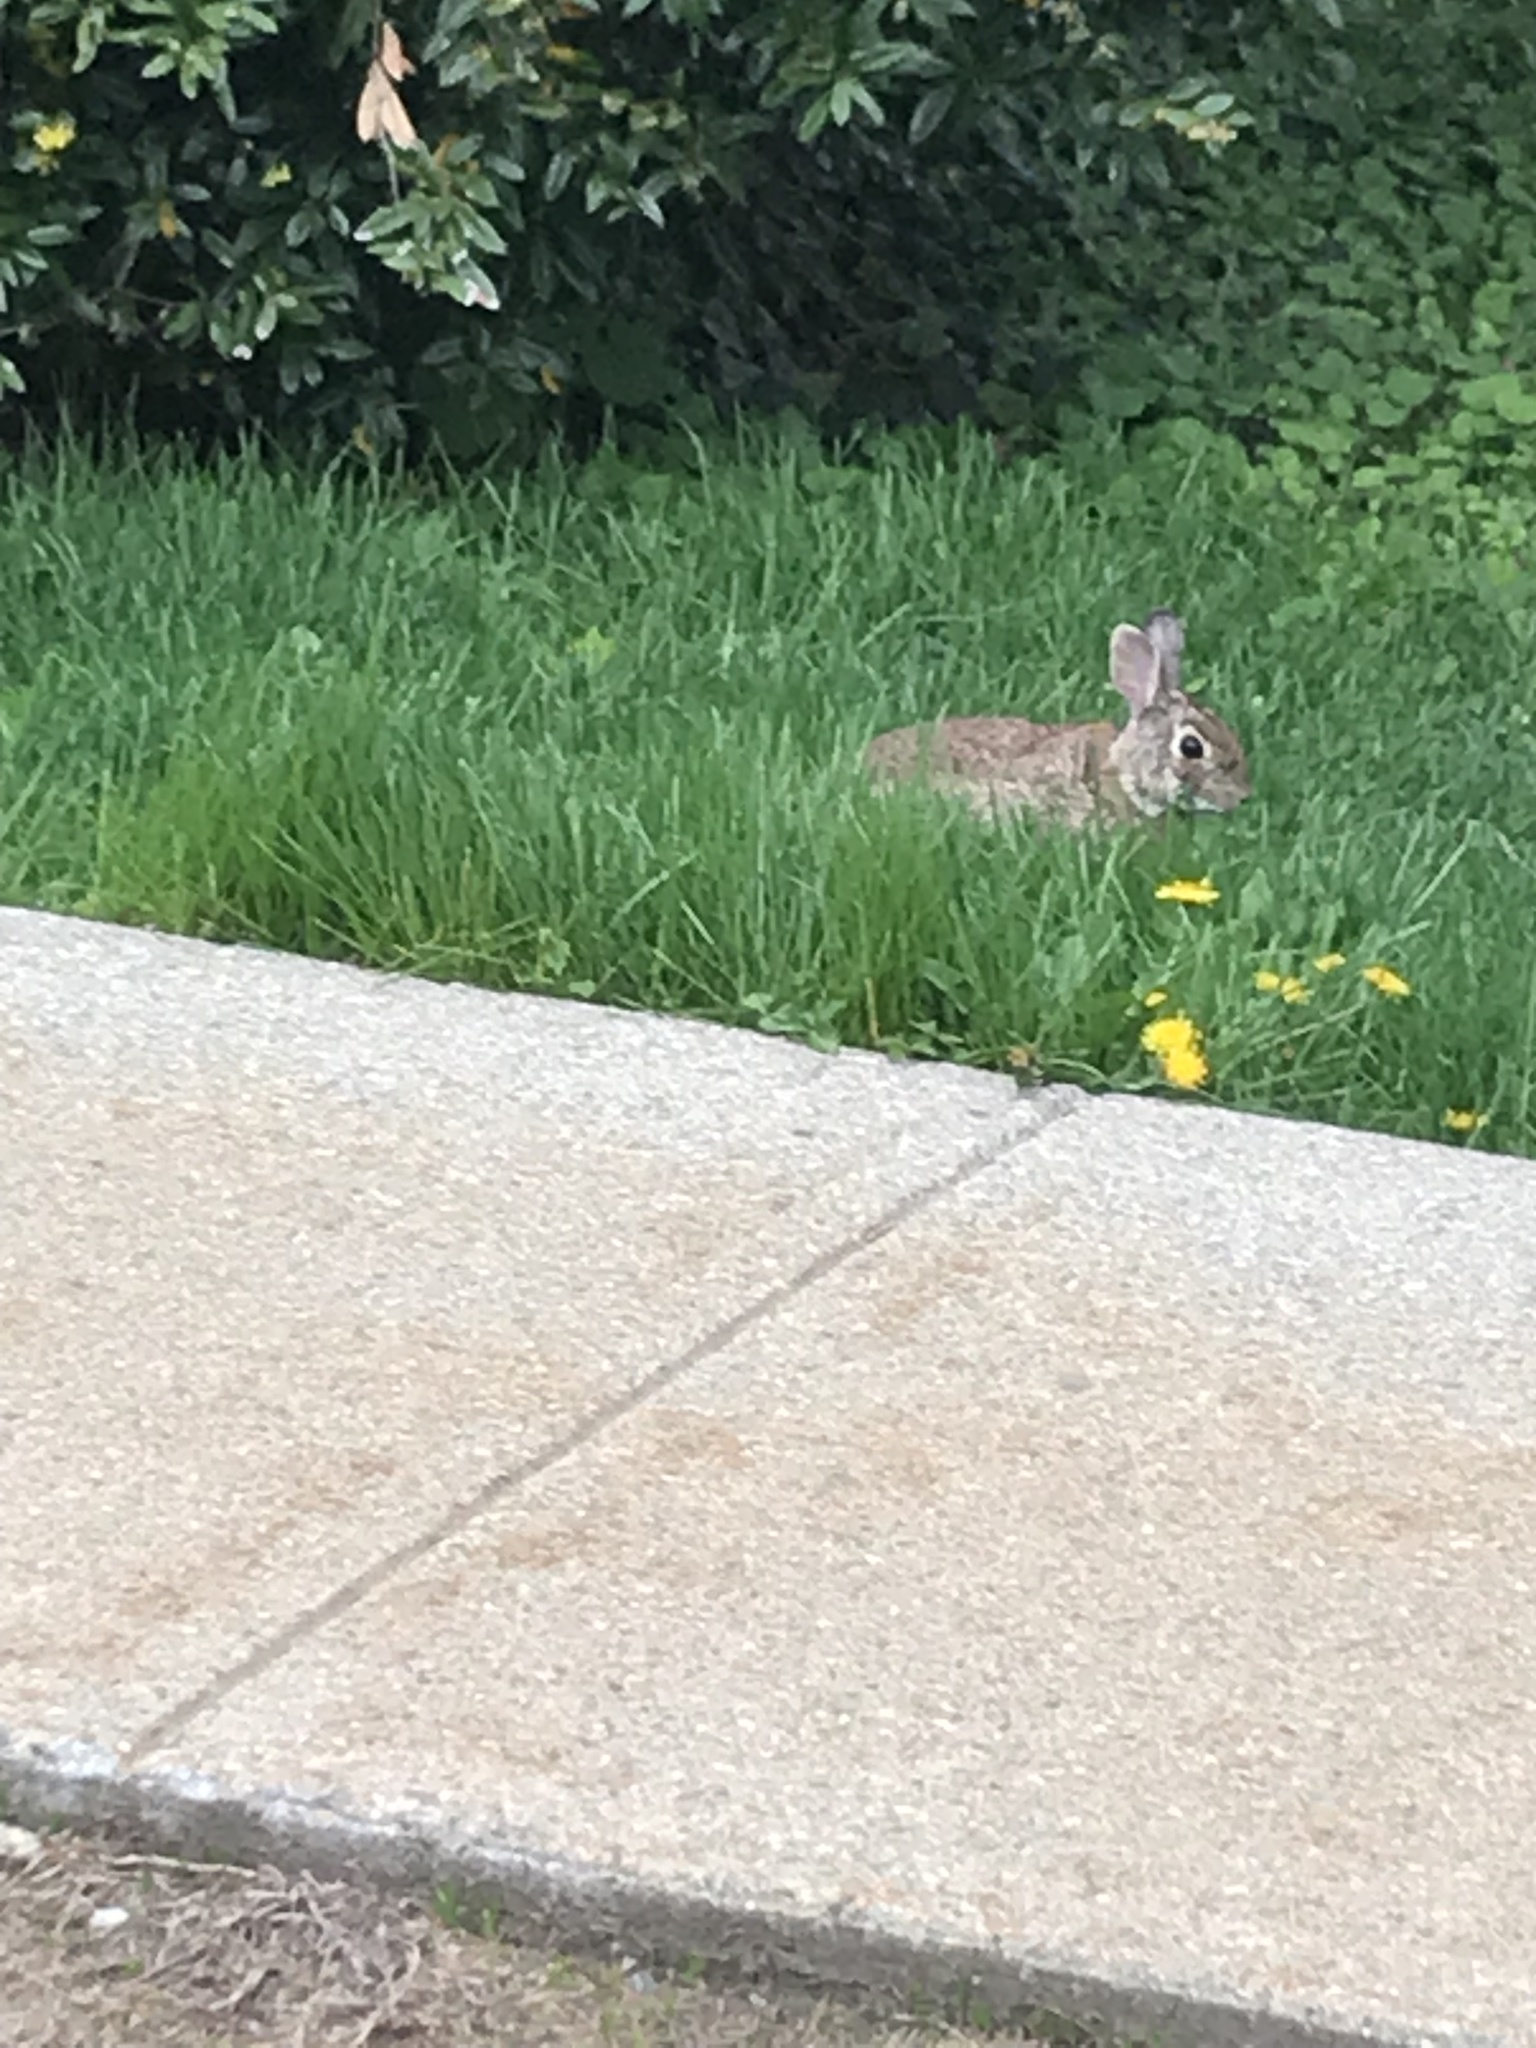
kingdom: Animalia
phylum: Chordata
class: Mammalia
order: Lagomorpha
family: Leporidae
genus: Sylvilagus
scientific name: Sylvilagus floridanus
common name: Eastern cottontail
